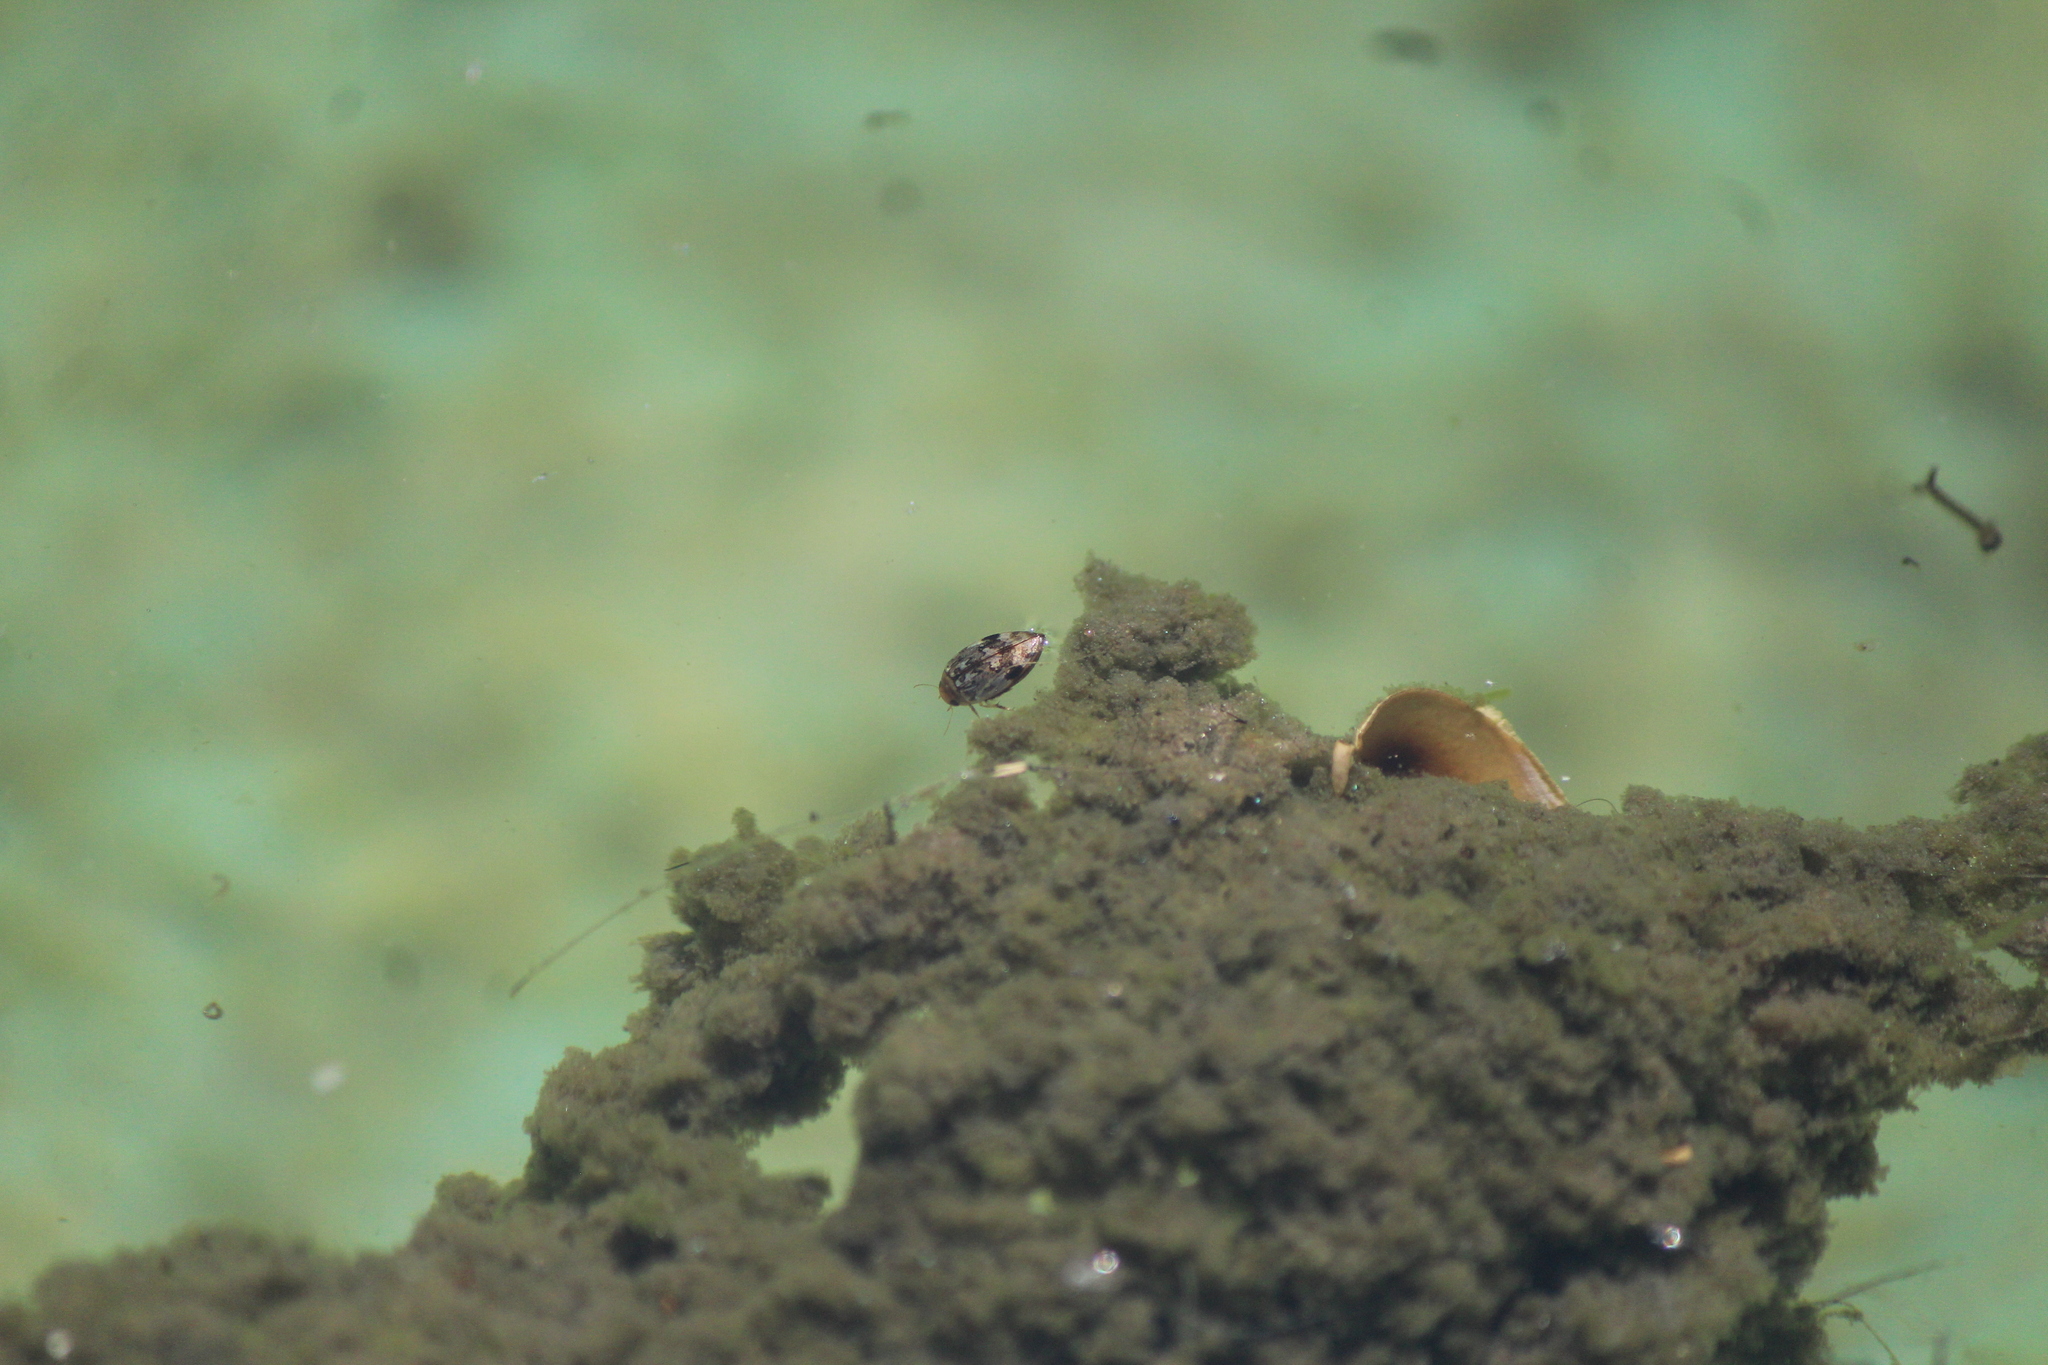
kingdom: Animalia
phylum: Arthropoda
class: Insecta
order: Coleoptera
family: Dytiscidae
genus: Laccophilus
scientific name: Laccophilus fasciatus
